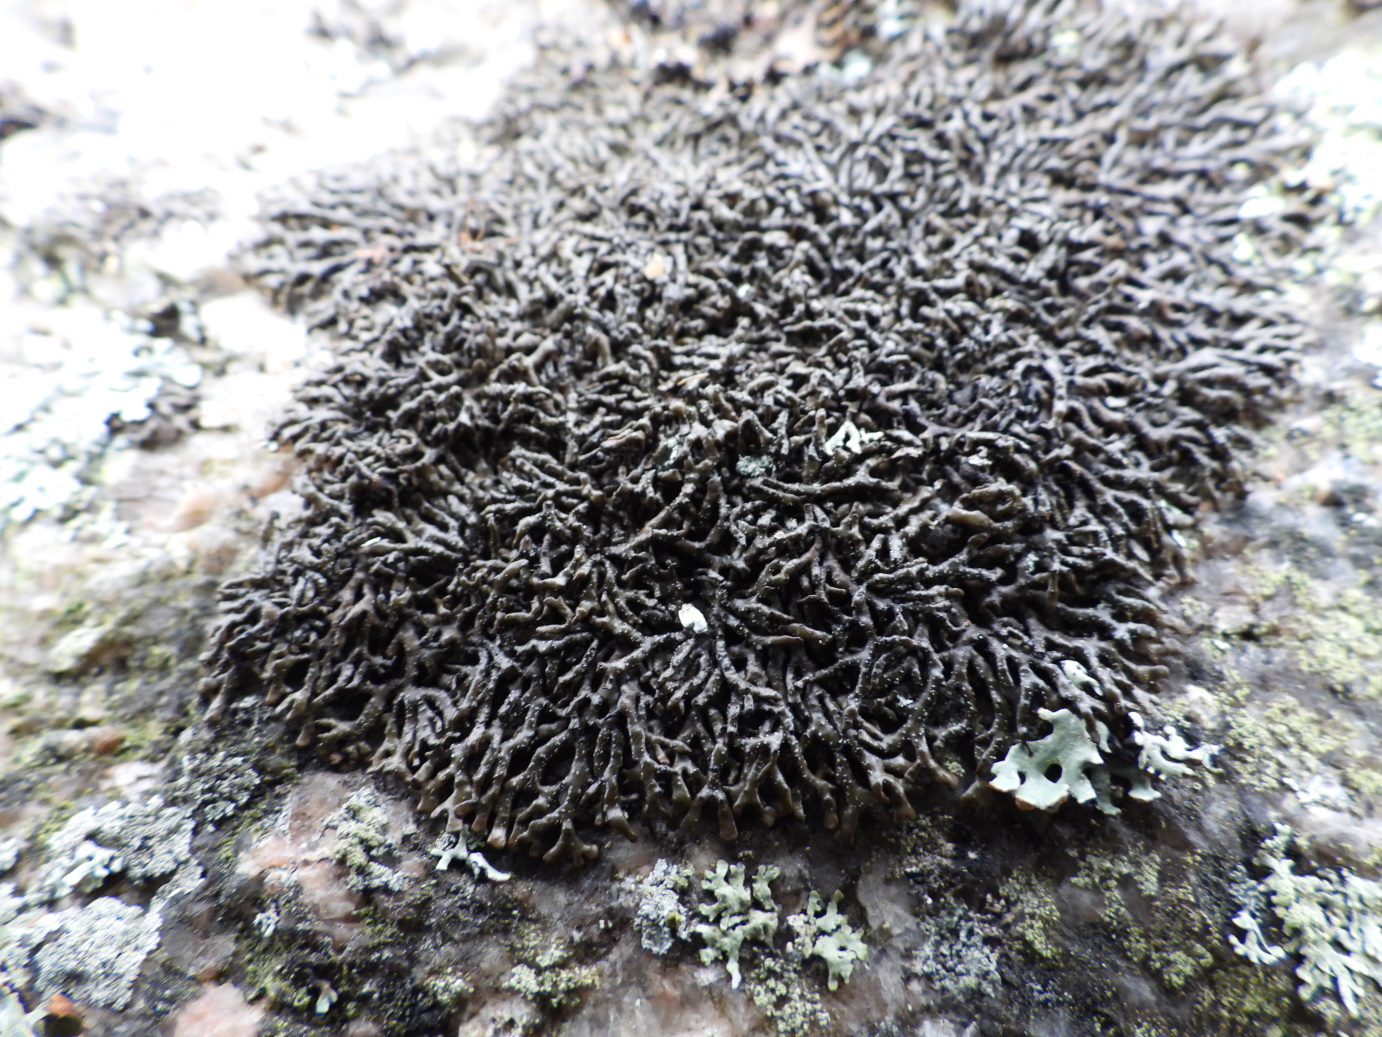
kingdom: Fungi
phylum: Ascomycota
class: Lecanoromycetes
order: Lecanorales
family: Parmeliaceae
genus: Melanelia
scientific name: Melanelia stygia
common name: Alpine camouflage lichen
